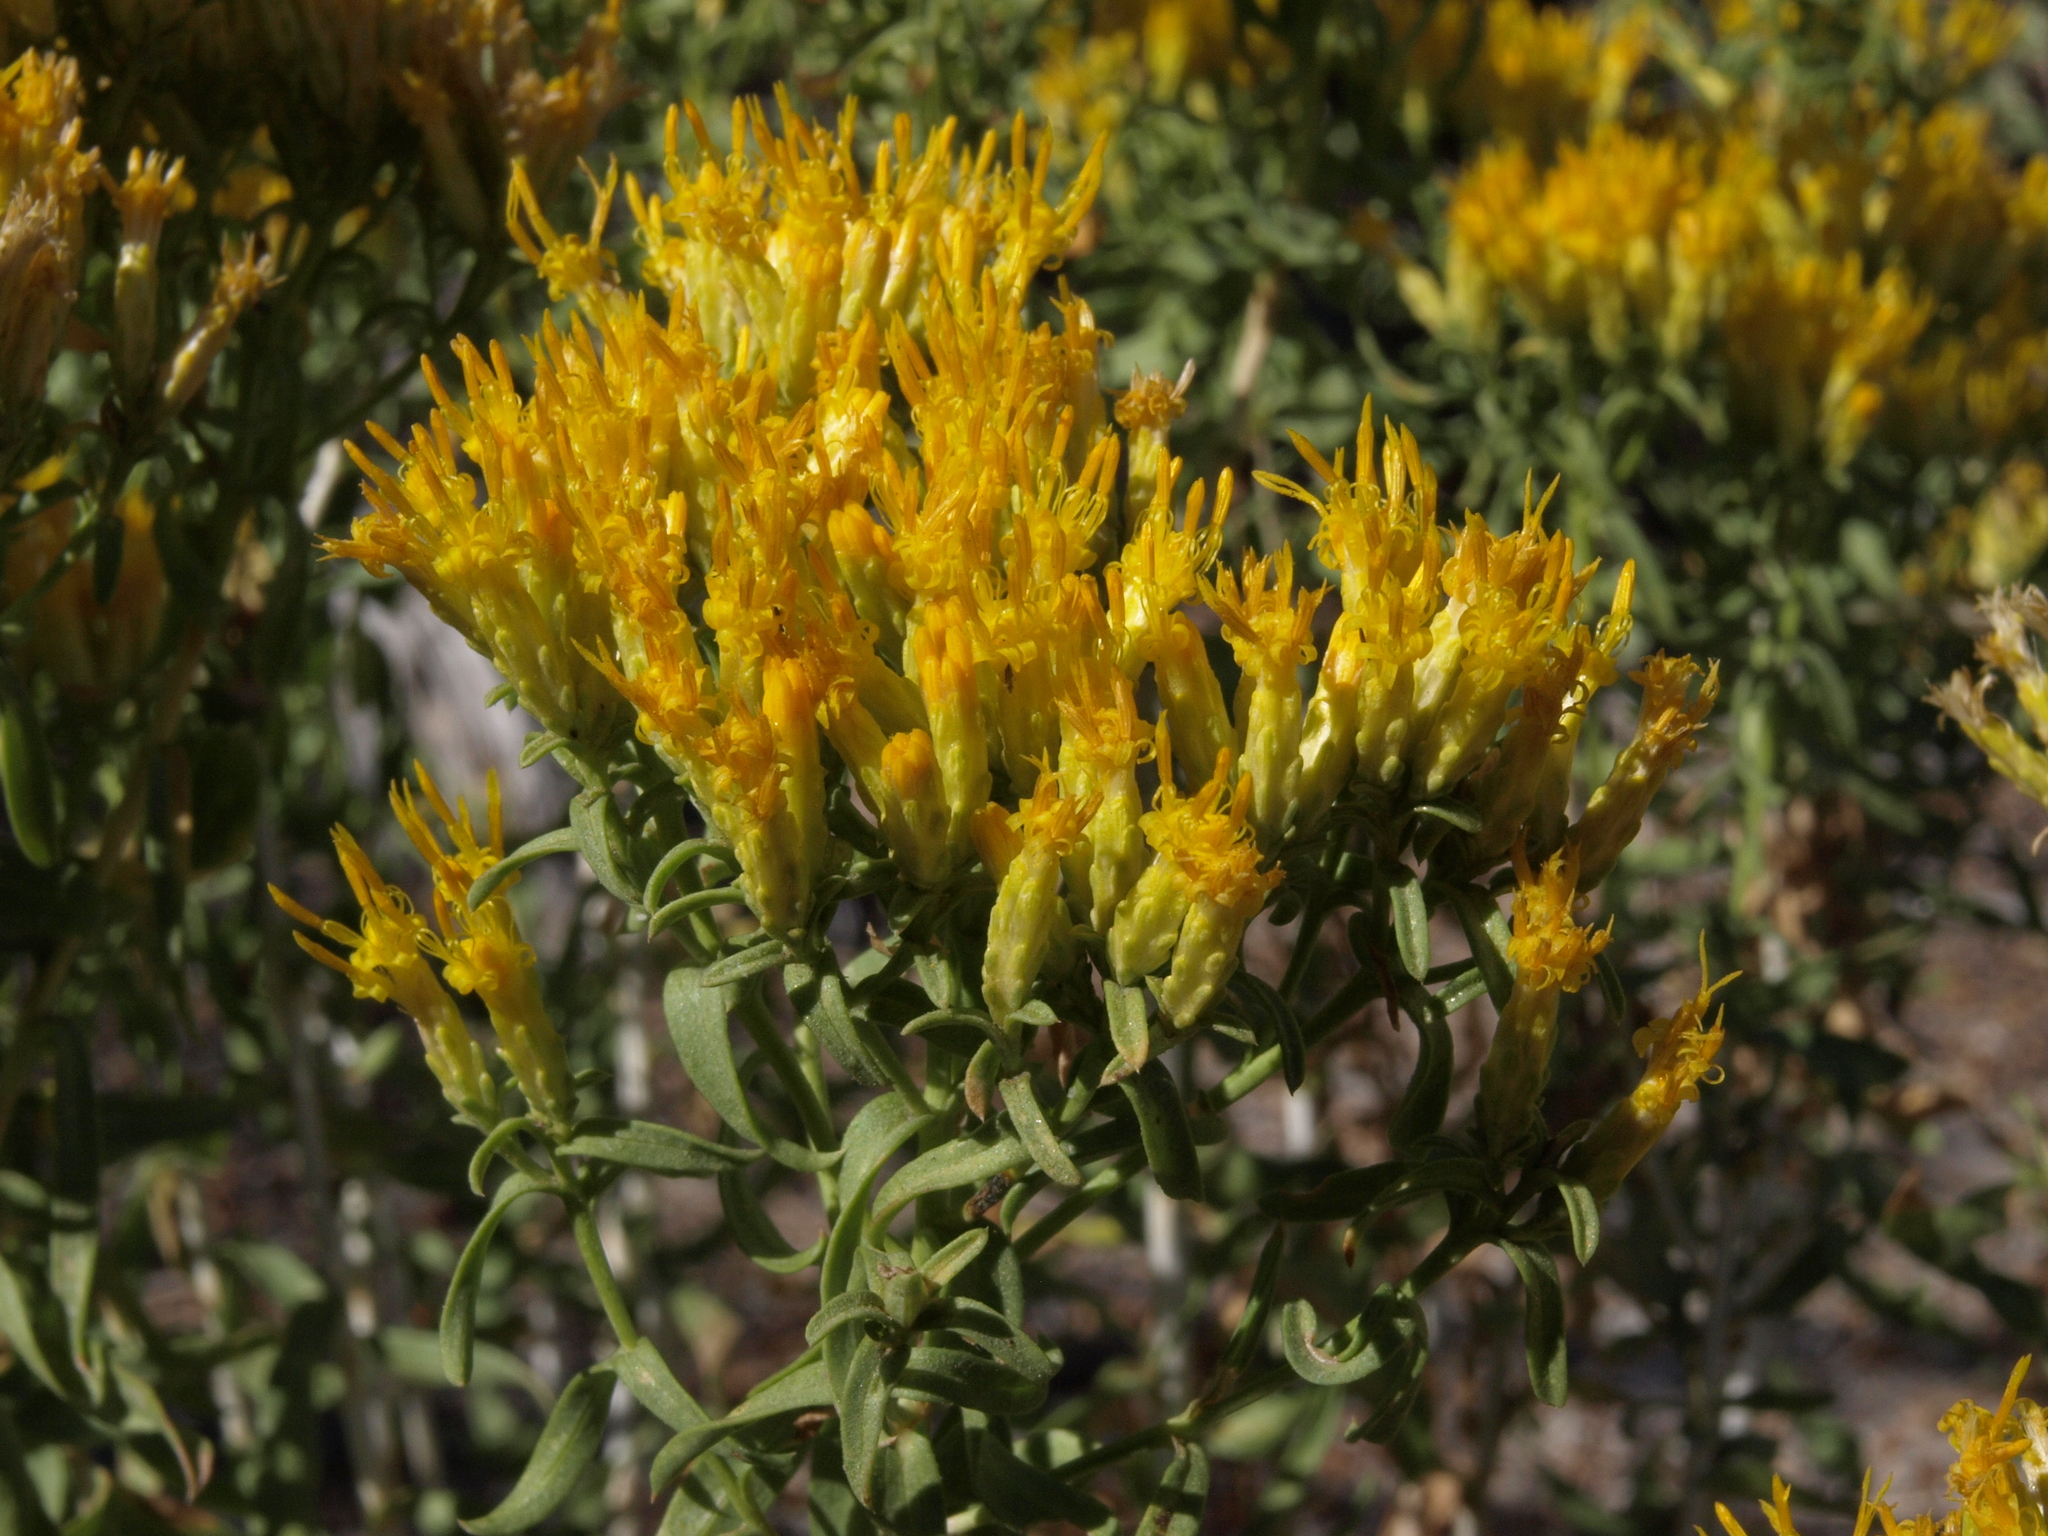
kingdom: Plantae
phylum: Tracheophyta
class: Magnoliopsida
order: Asterales
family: Asteraceae
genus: Chrysothamnus
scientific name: Chrysothamnus viscidiflorus
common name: Yellow rabbitbrush
